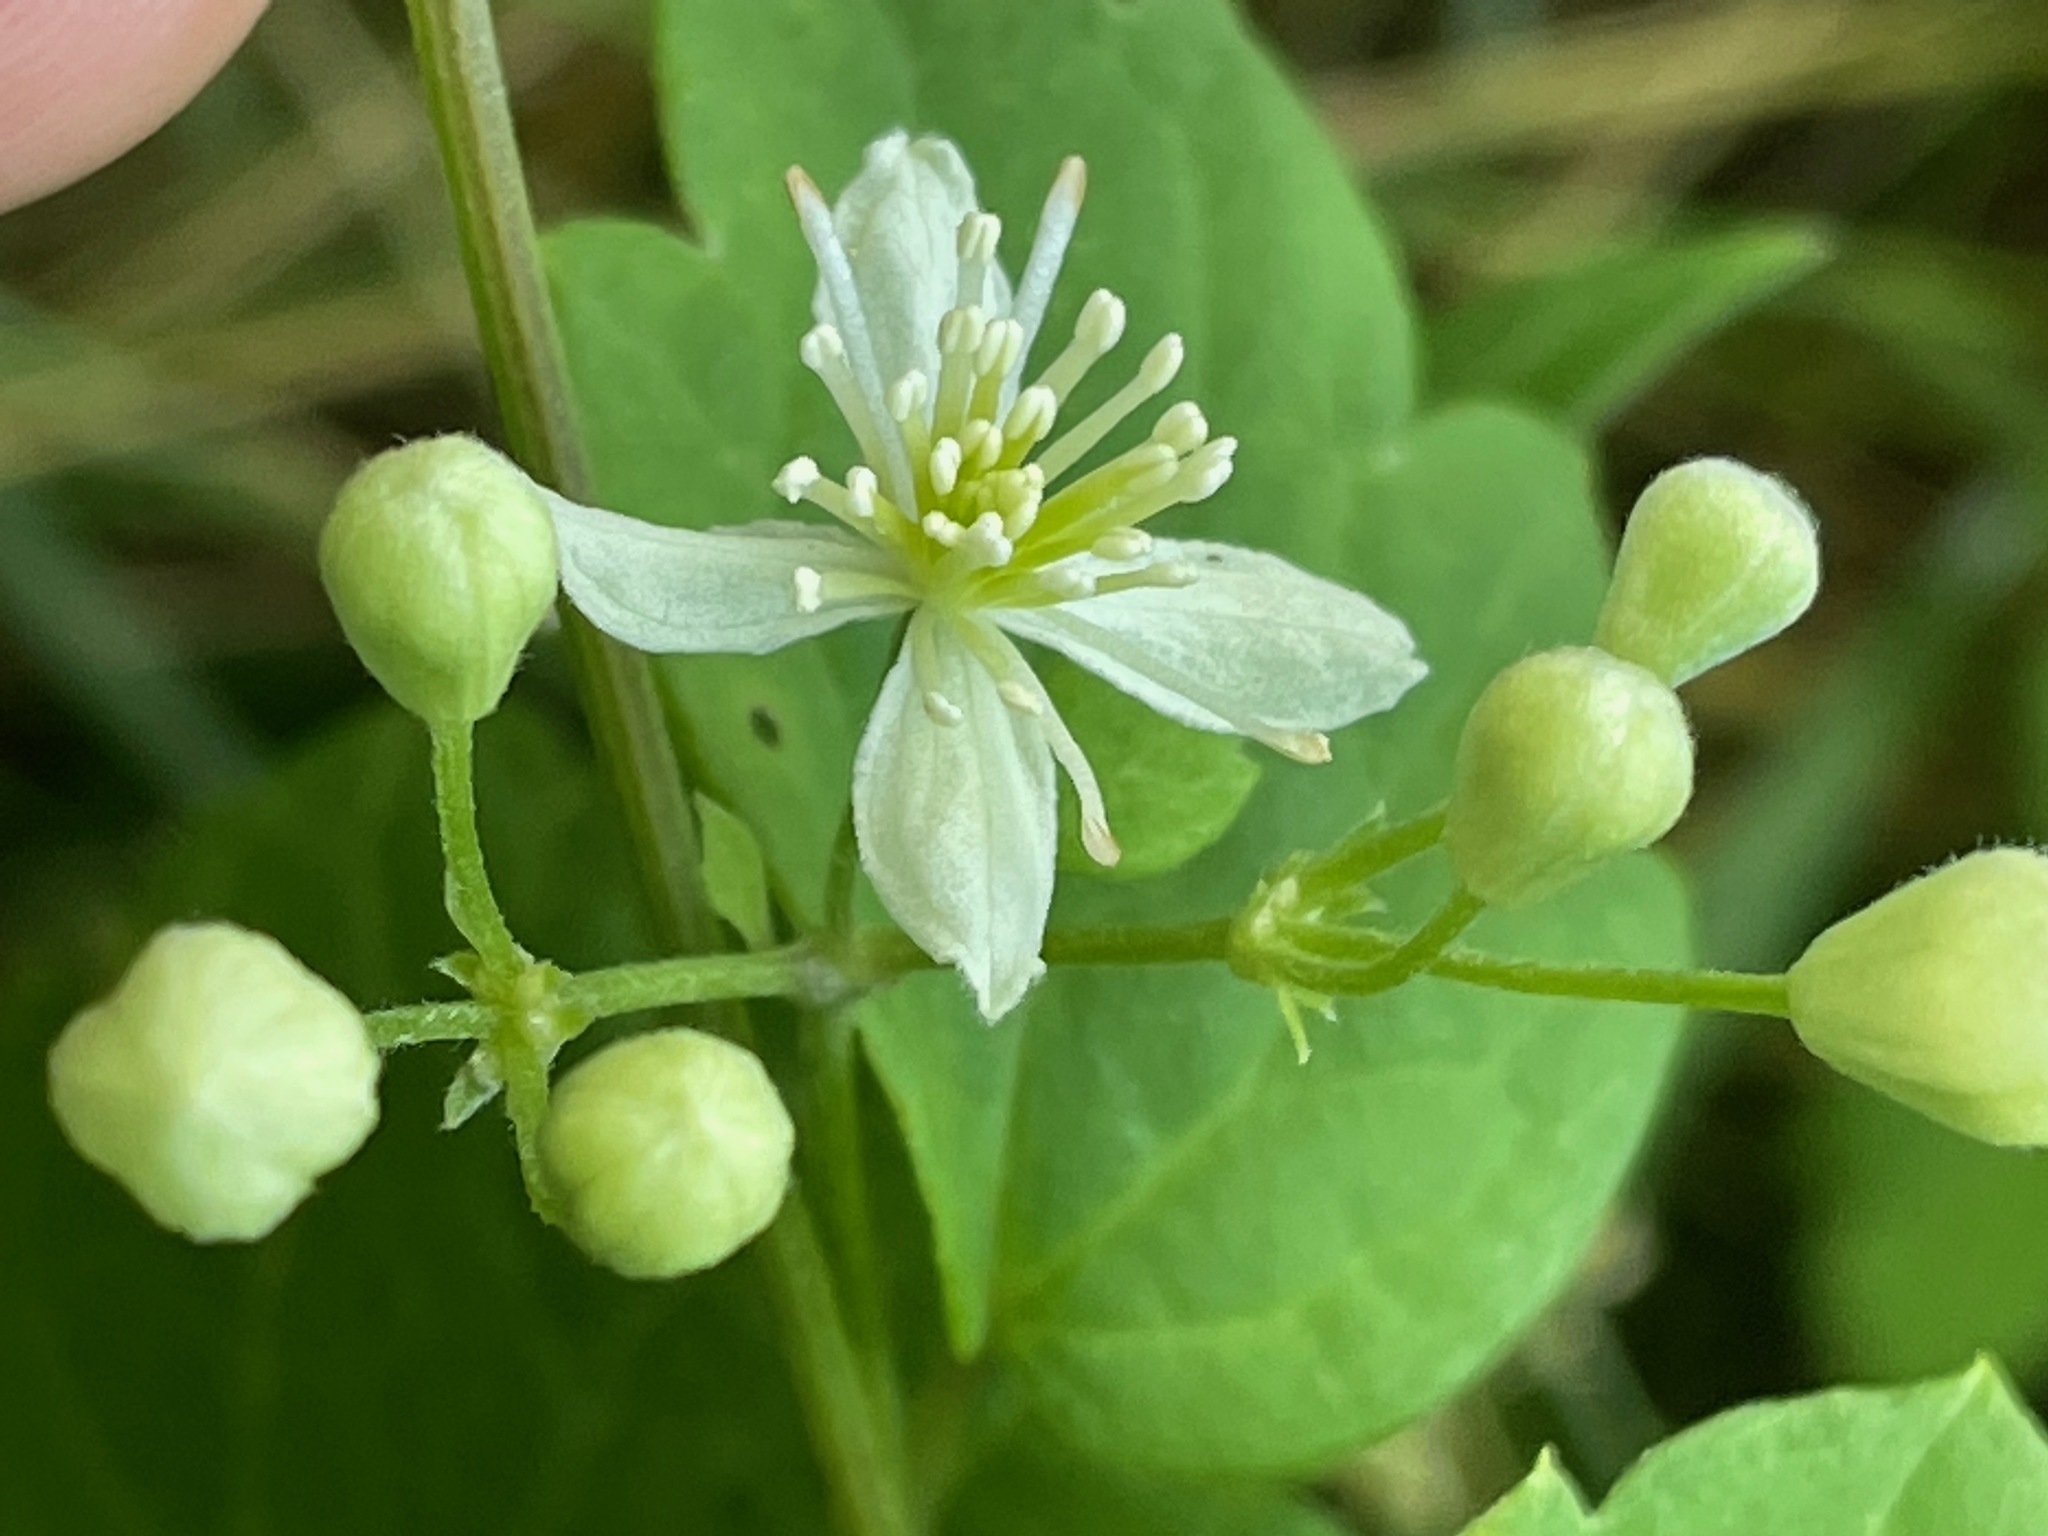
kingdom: Plantae
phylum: Tracheophyta
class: Magnoliopsida
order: Ranunculales
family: Ranunculaceae
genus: Clematis
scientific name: Clematis virginiana
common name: Virgin's-bower
